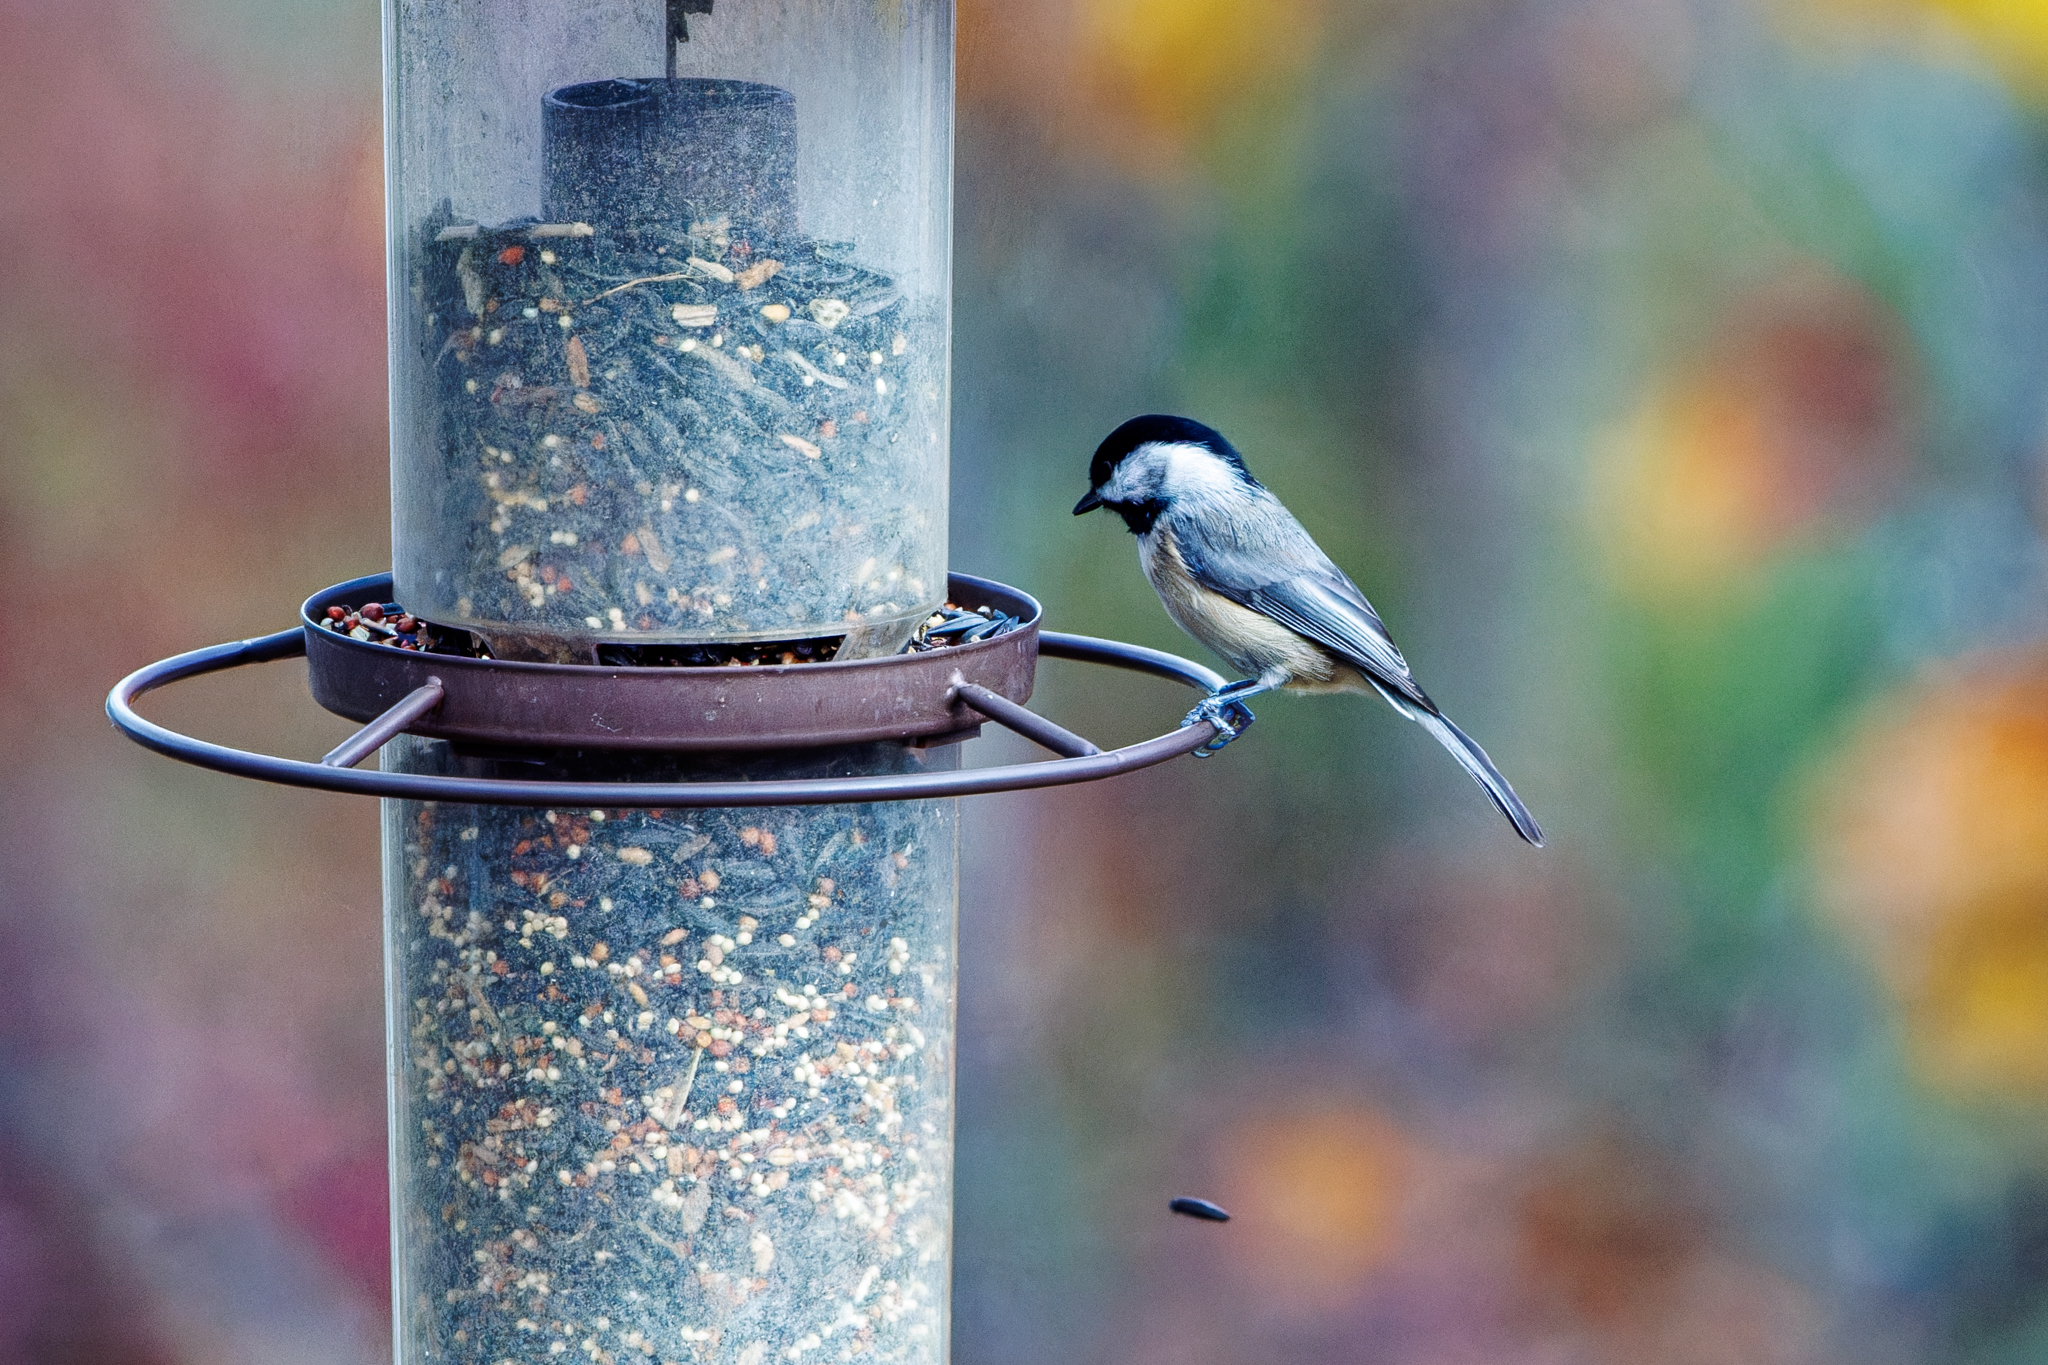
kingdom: Animalia
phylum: Chordata
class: Aves
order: Passeriformes
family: Paridae
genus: Poecile
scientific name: Poecile carolinensis
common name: Carolina chickadee
